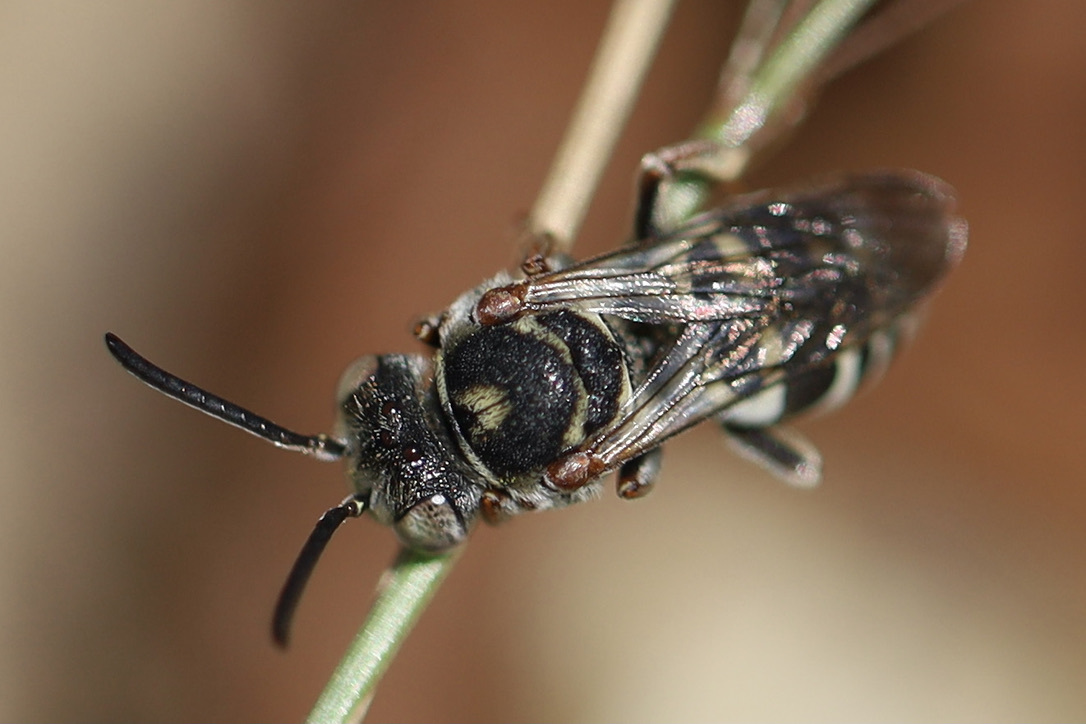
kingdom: Animalia
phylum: Arthropoda
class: Insecta
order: Hymenoptera
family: Apidae
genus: Epeolus
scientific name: Epeolus compactus
